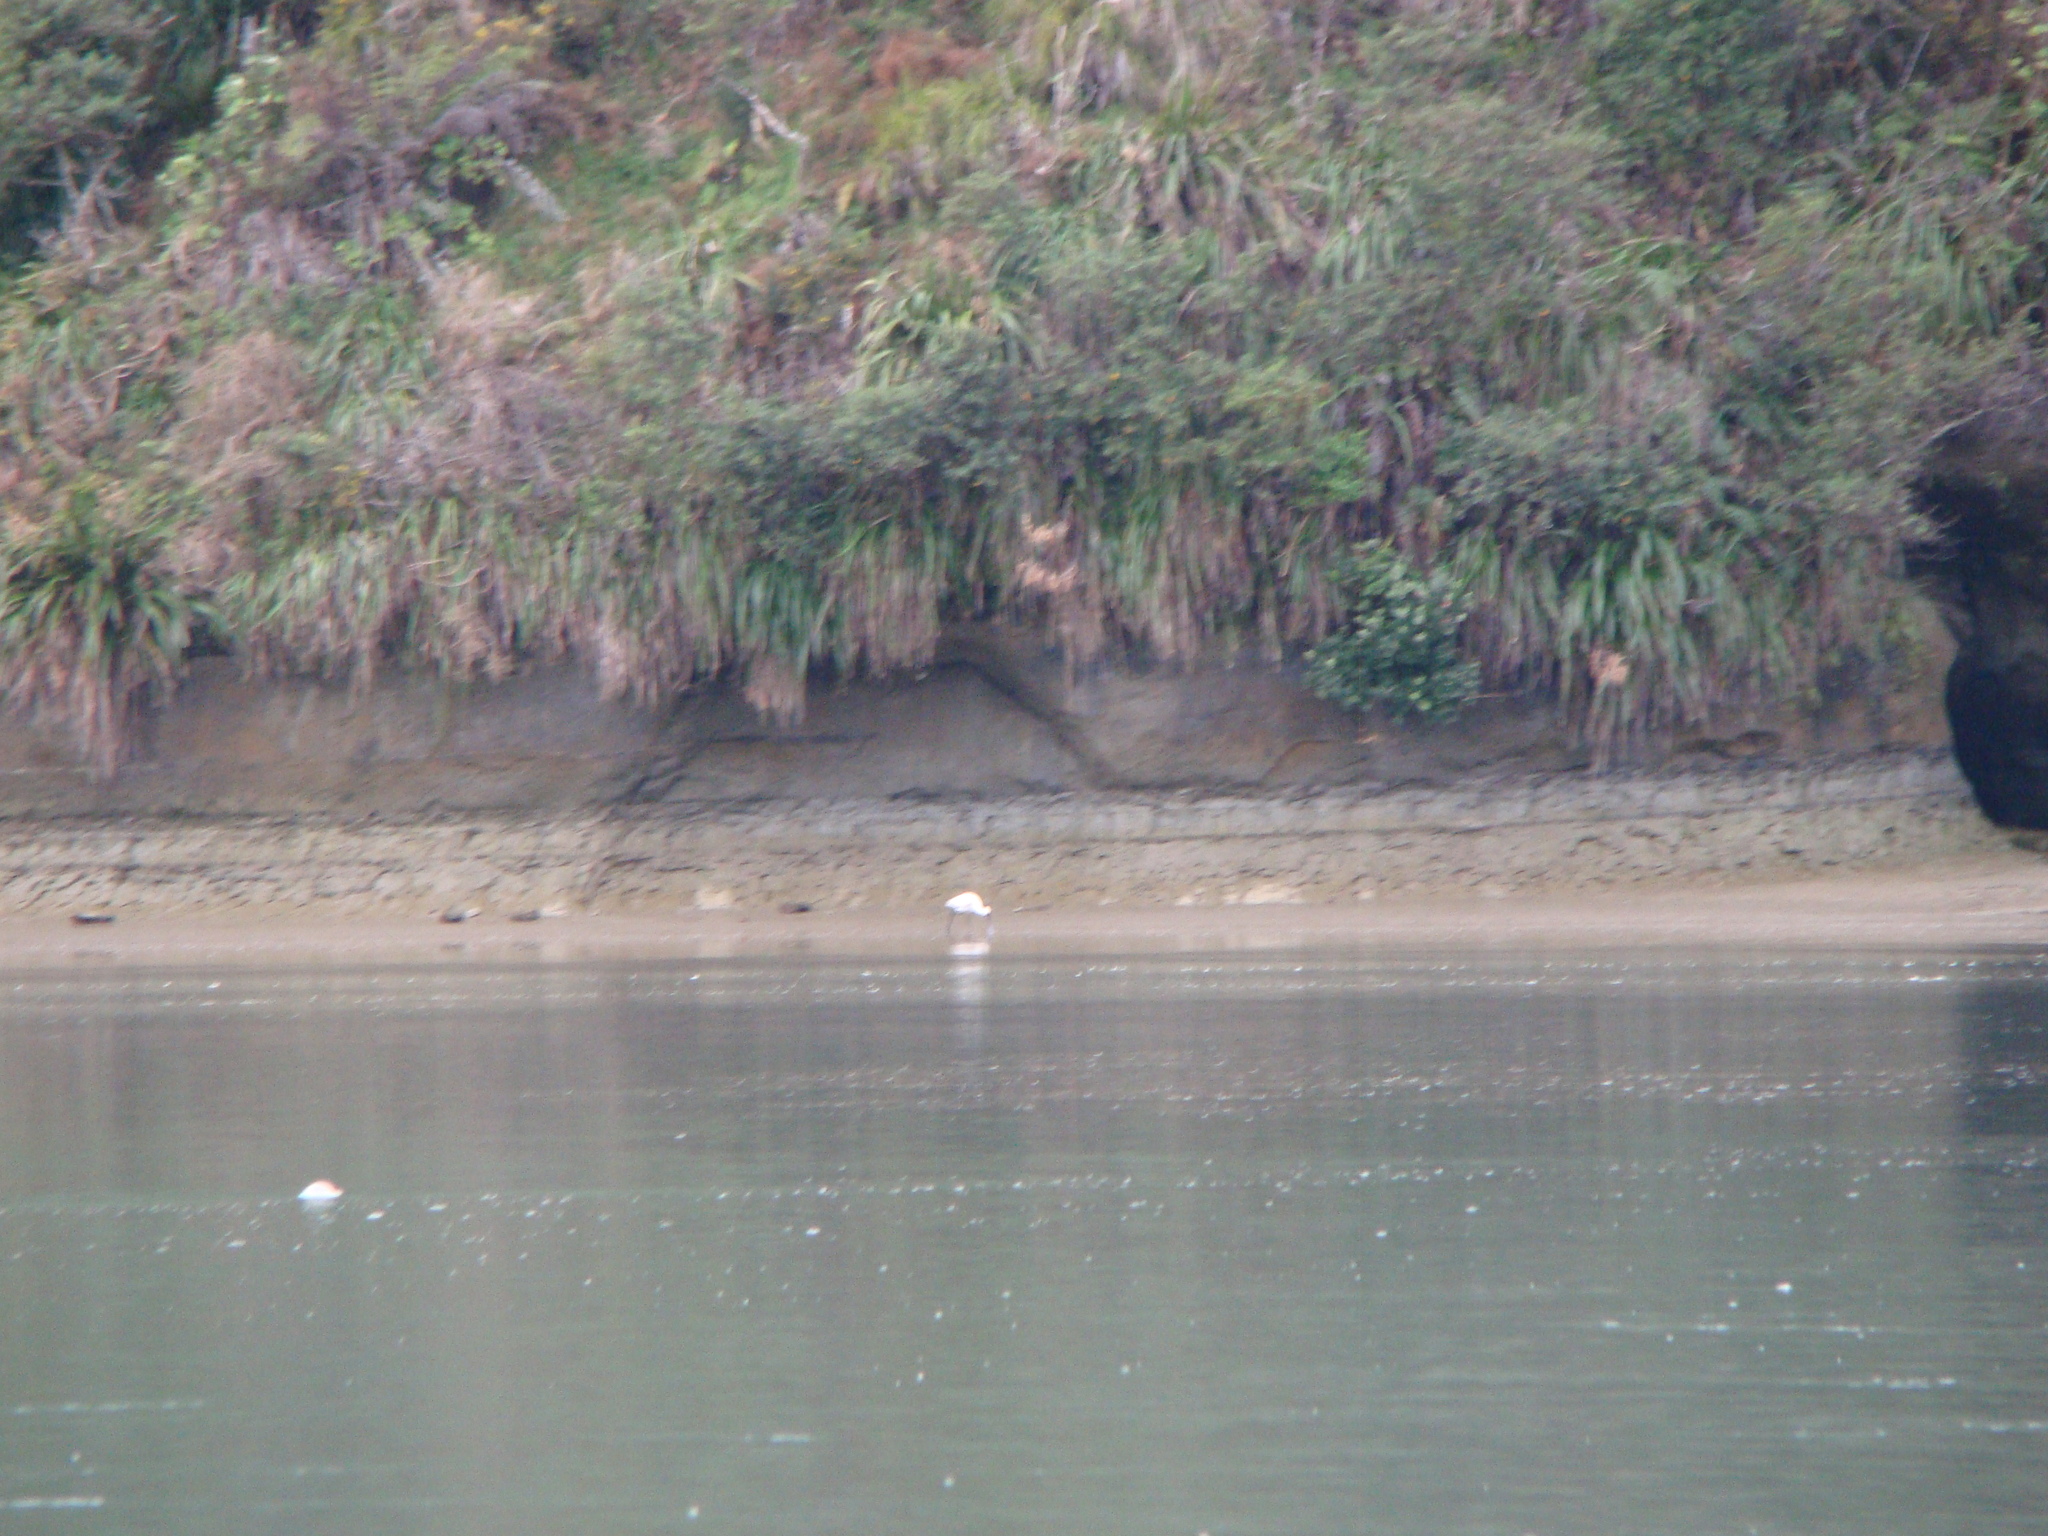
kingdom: Animalia
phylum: Chordata
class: Aves
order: Pelecaniformes
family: Threskiornithidae
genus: Platalea
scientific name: Platalea regia
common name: Royal spoonbill
